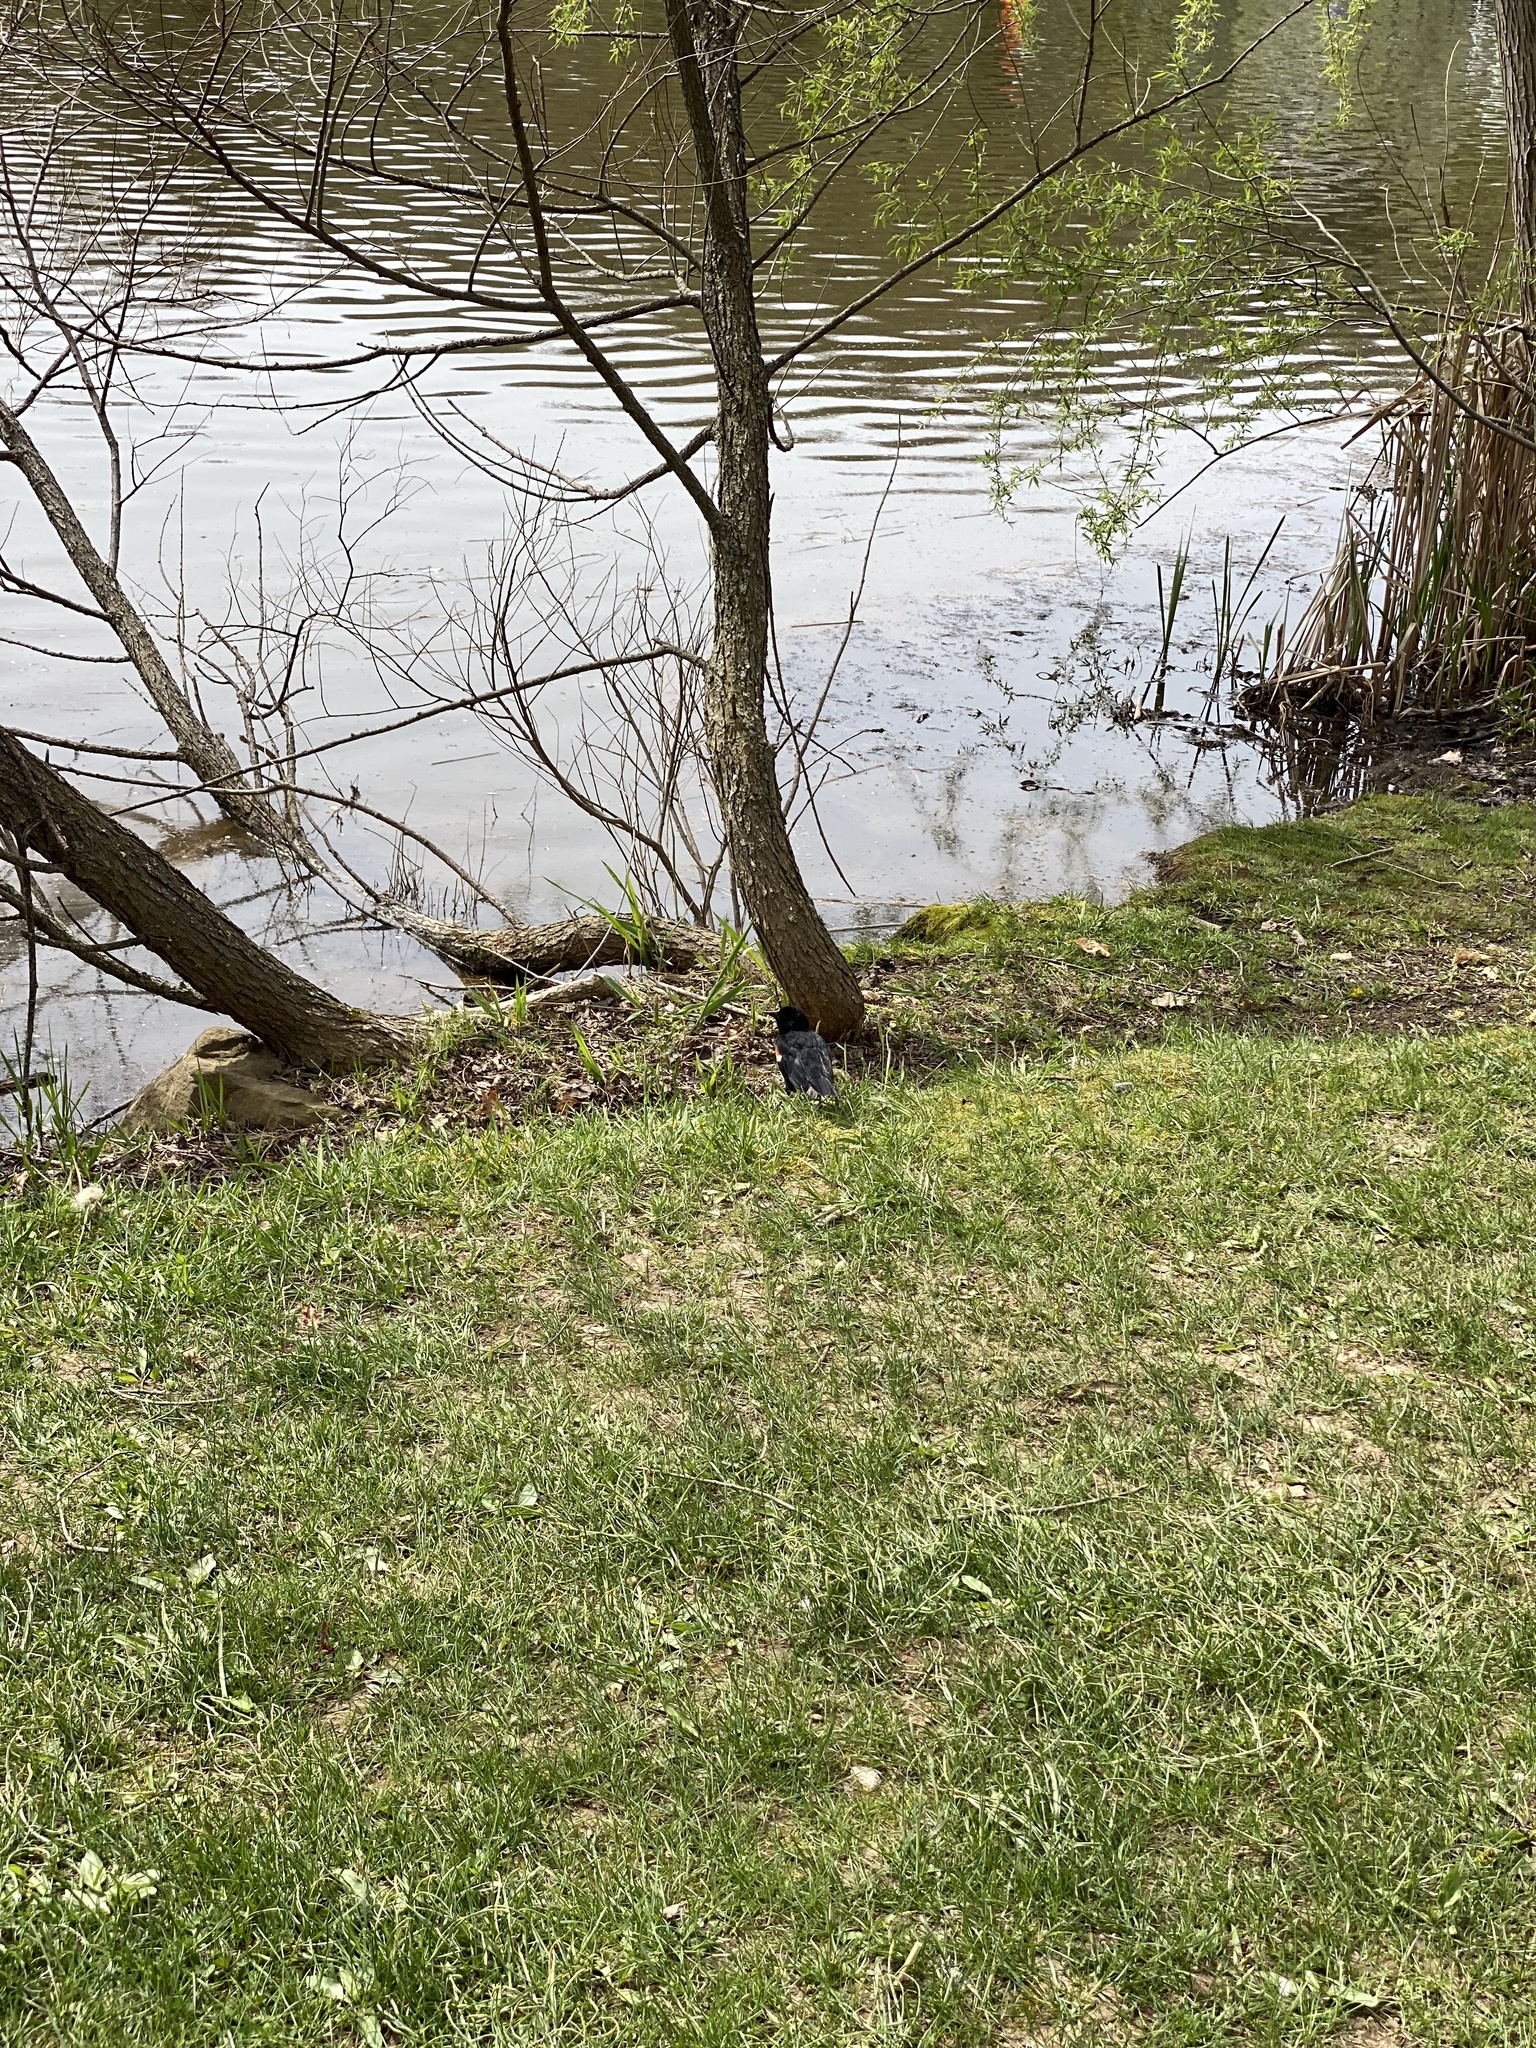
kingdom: Animalia
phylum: Chordata
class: Aves
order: Passeriformes
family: Icteridae
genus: Agelaius
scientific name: Agelaius phoeniceus
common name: Red-winged blackbird
